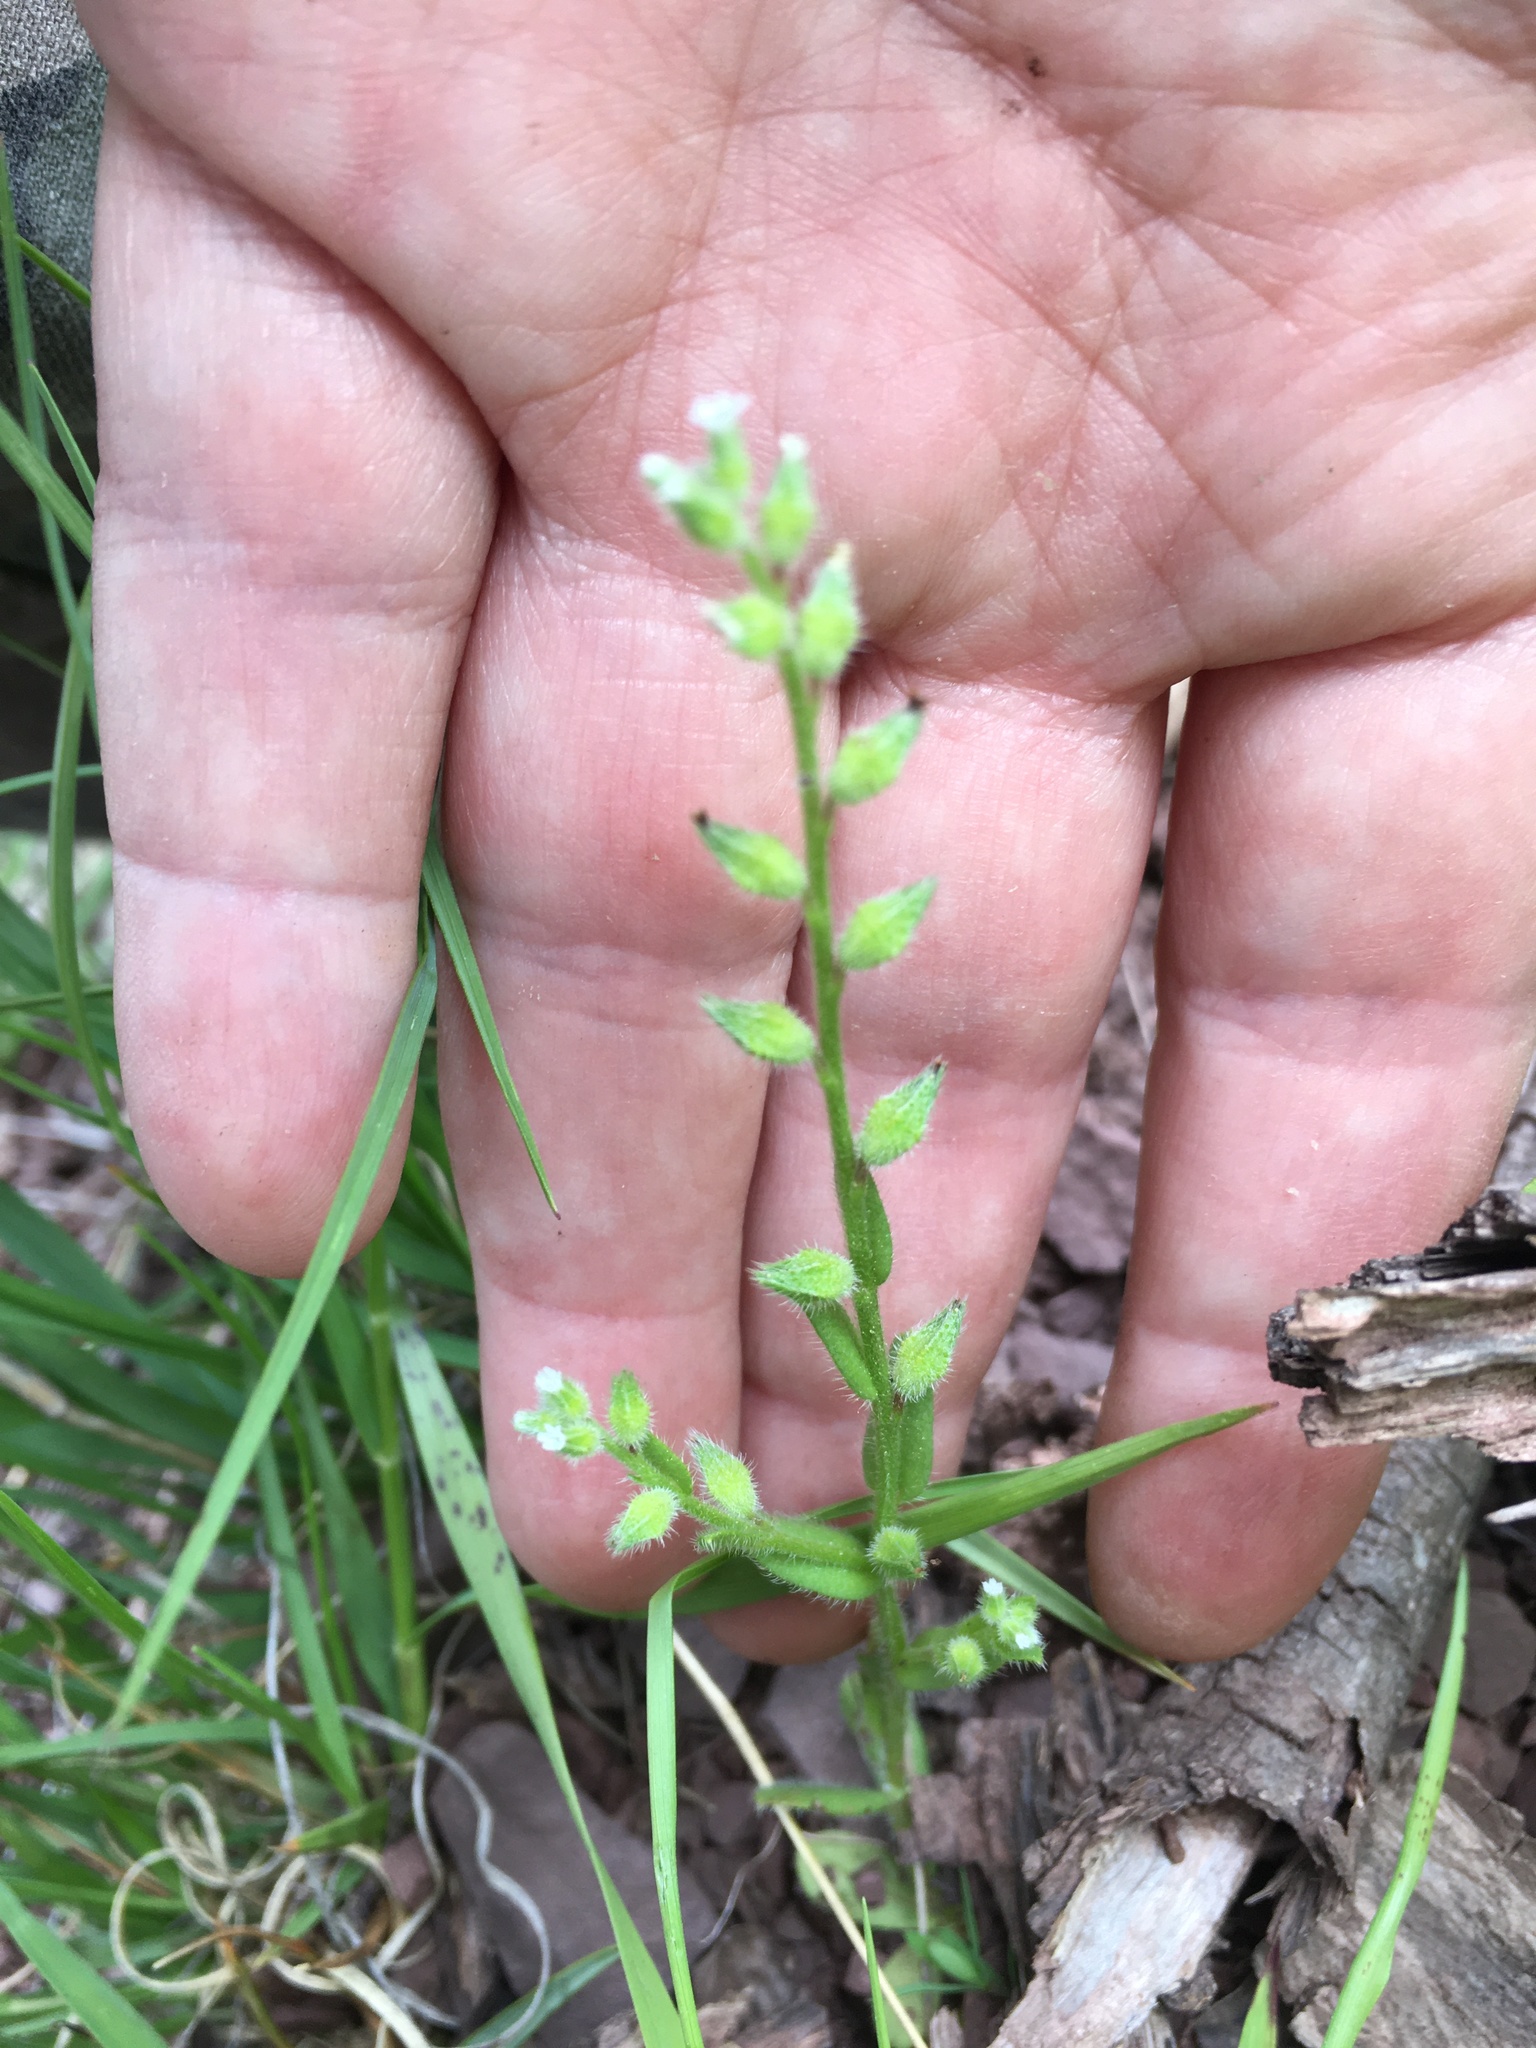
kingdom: Plantae
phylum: Tracheophyta
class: Magnoliopsida
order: Boraginales
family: Boraginaceae
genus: Myosotis
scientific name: Myosotis verna
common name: Early forget-me-not
